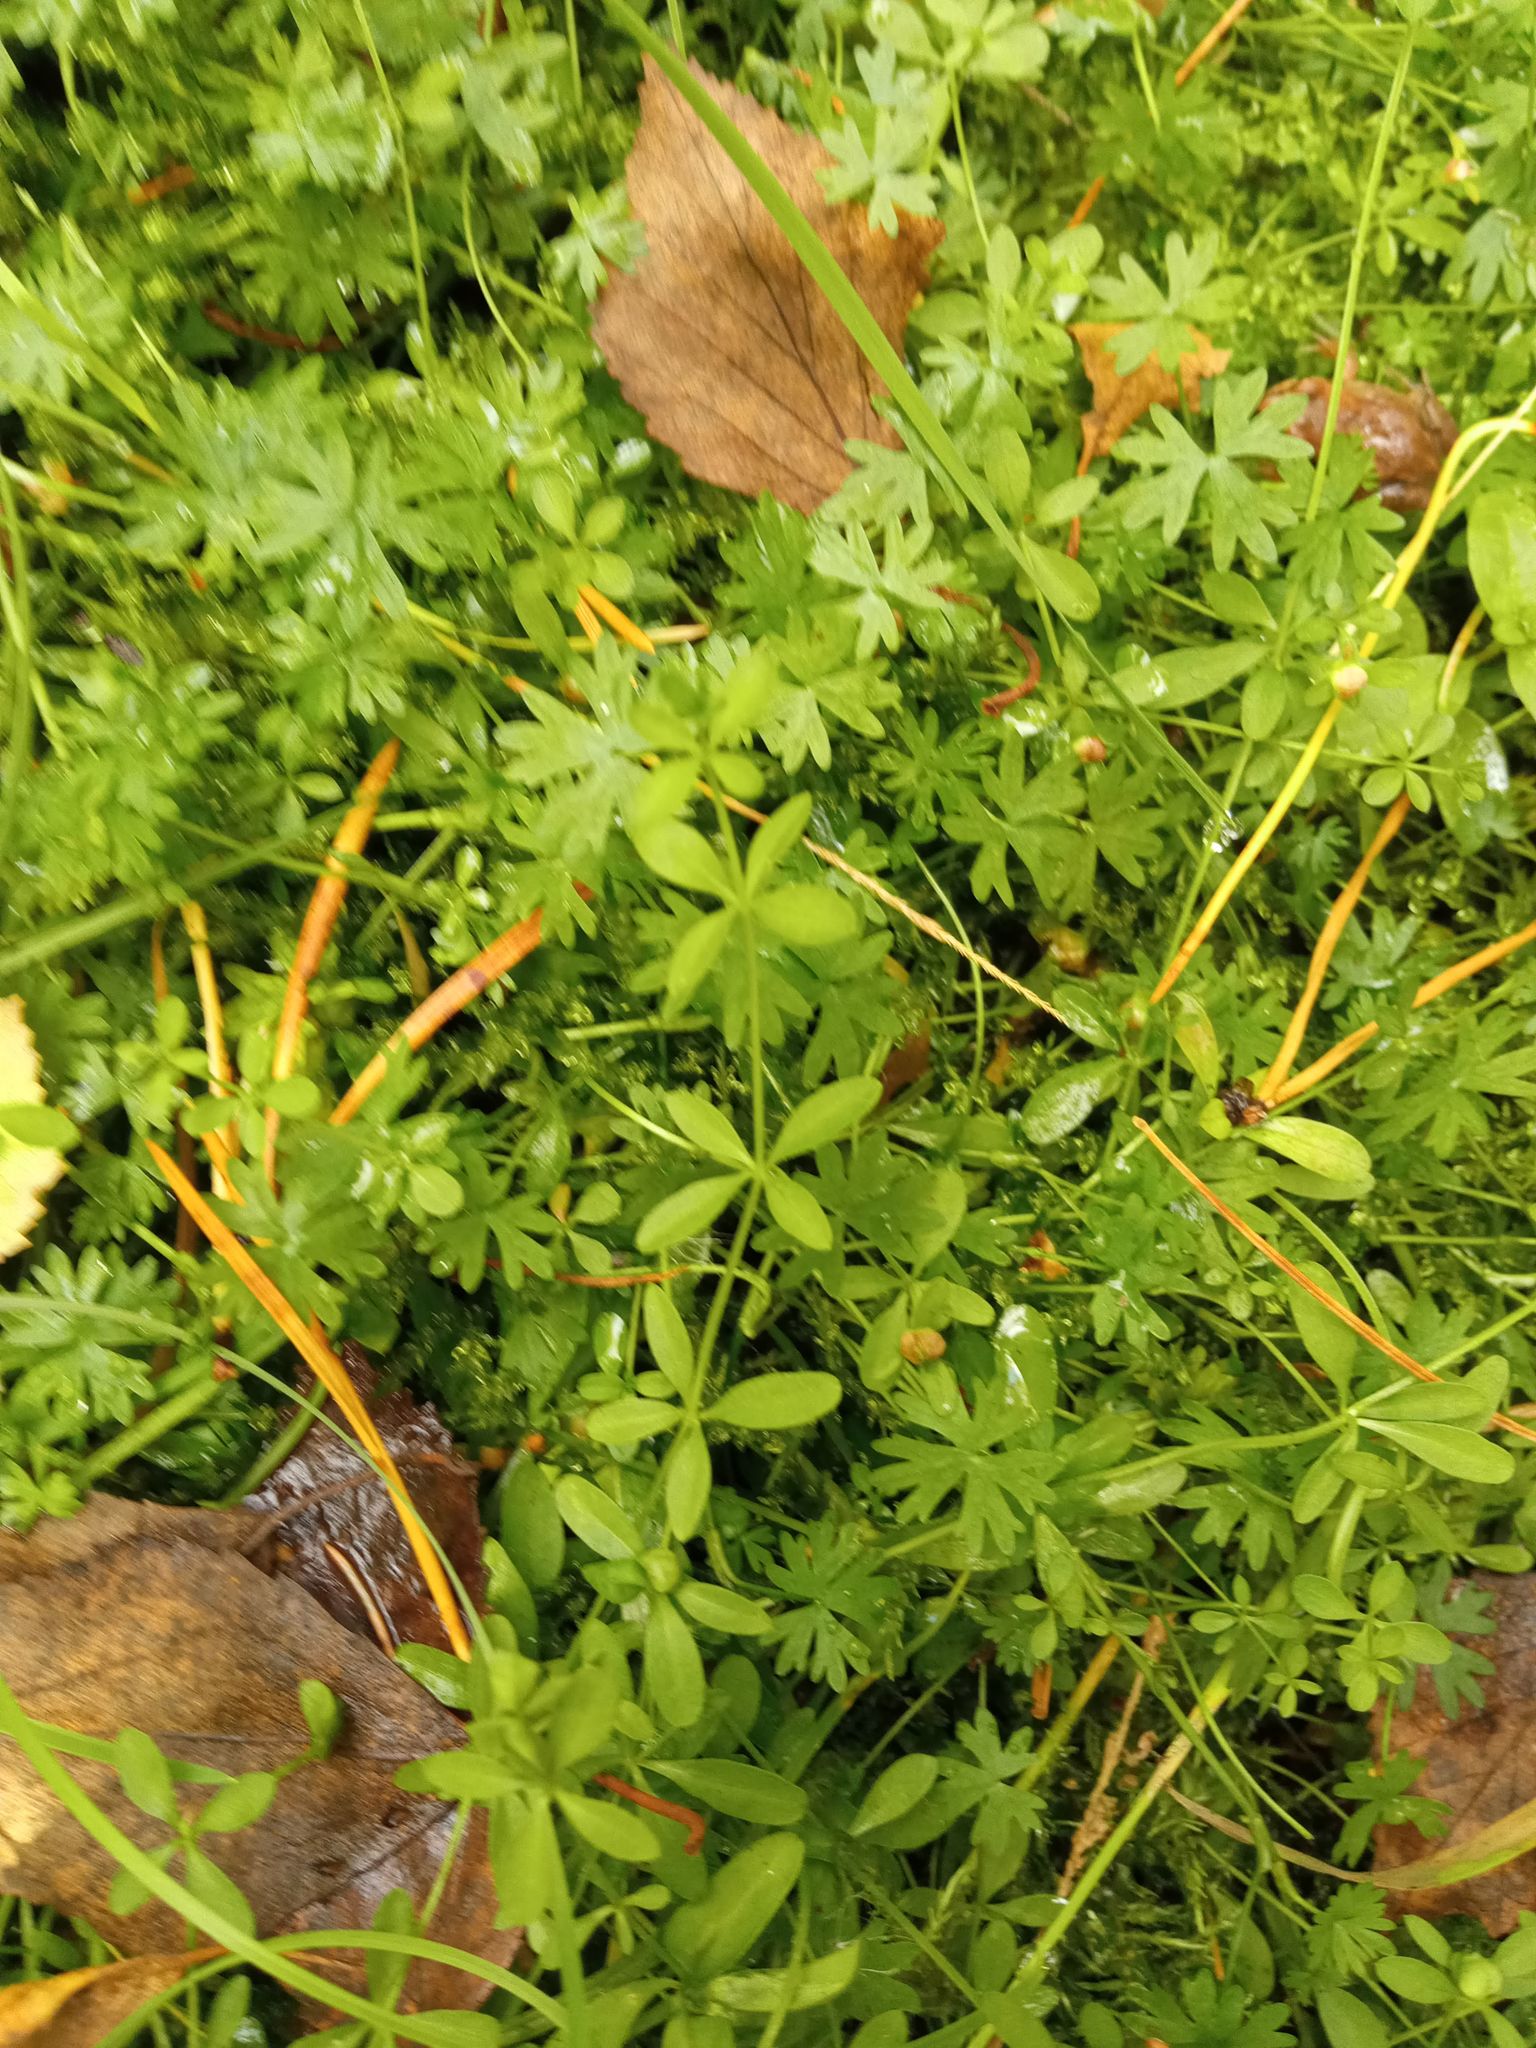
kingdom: Plantae
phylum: Tracheophyta
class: Magnoliopsida
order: Gentianales
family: Rubiaceae
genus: Galium
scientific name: Galium palustre
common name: Common marsh-bedstraw
